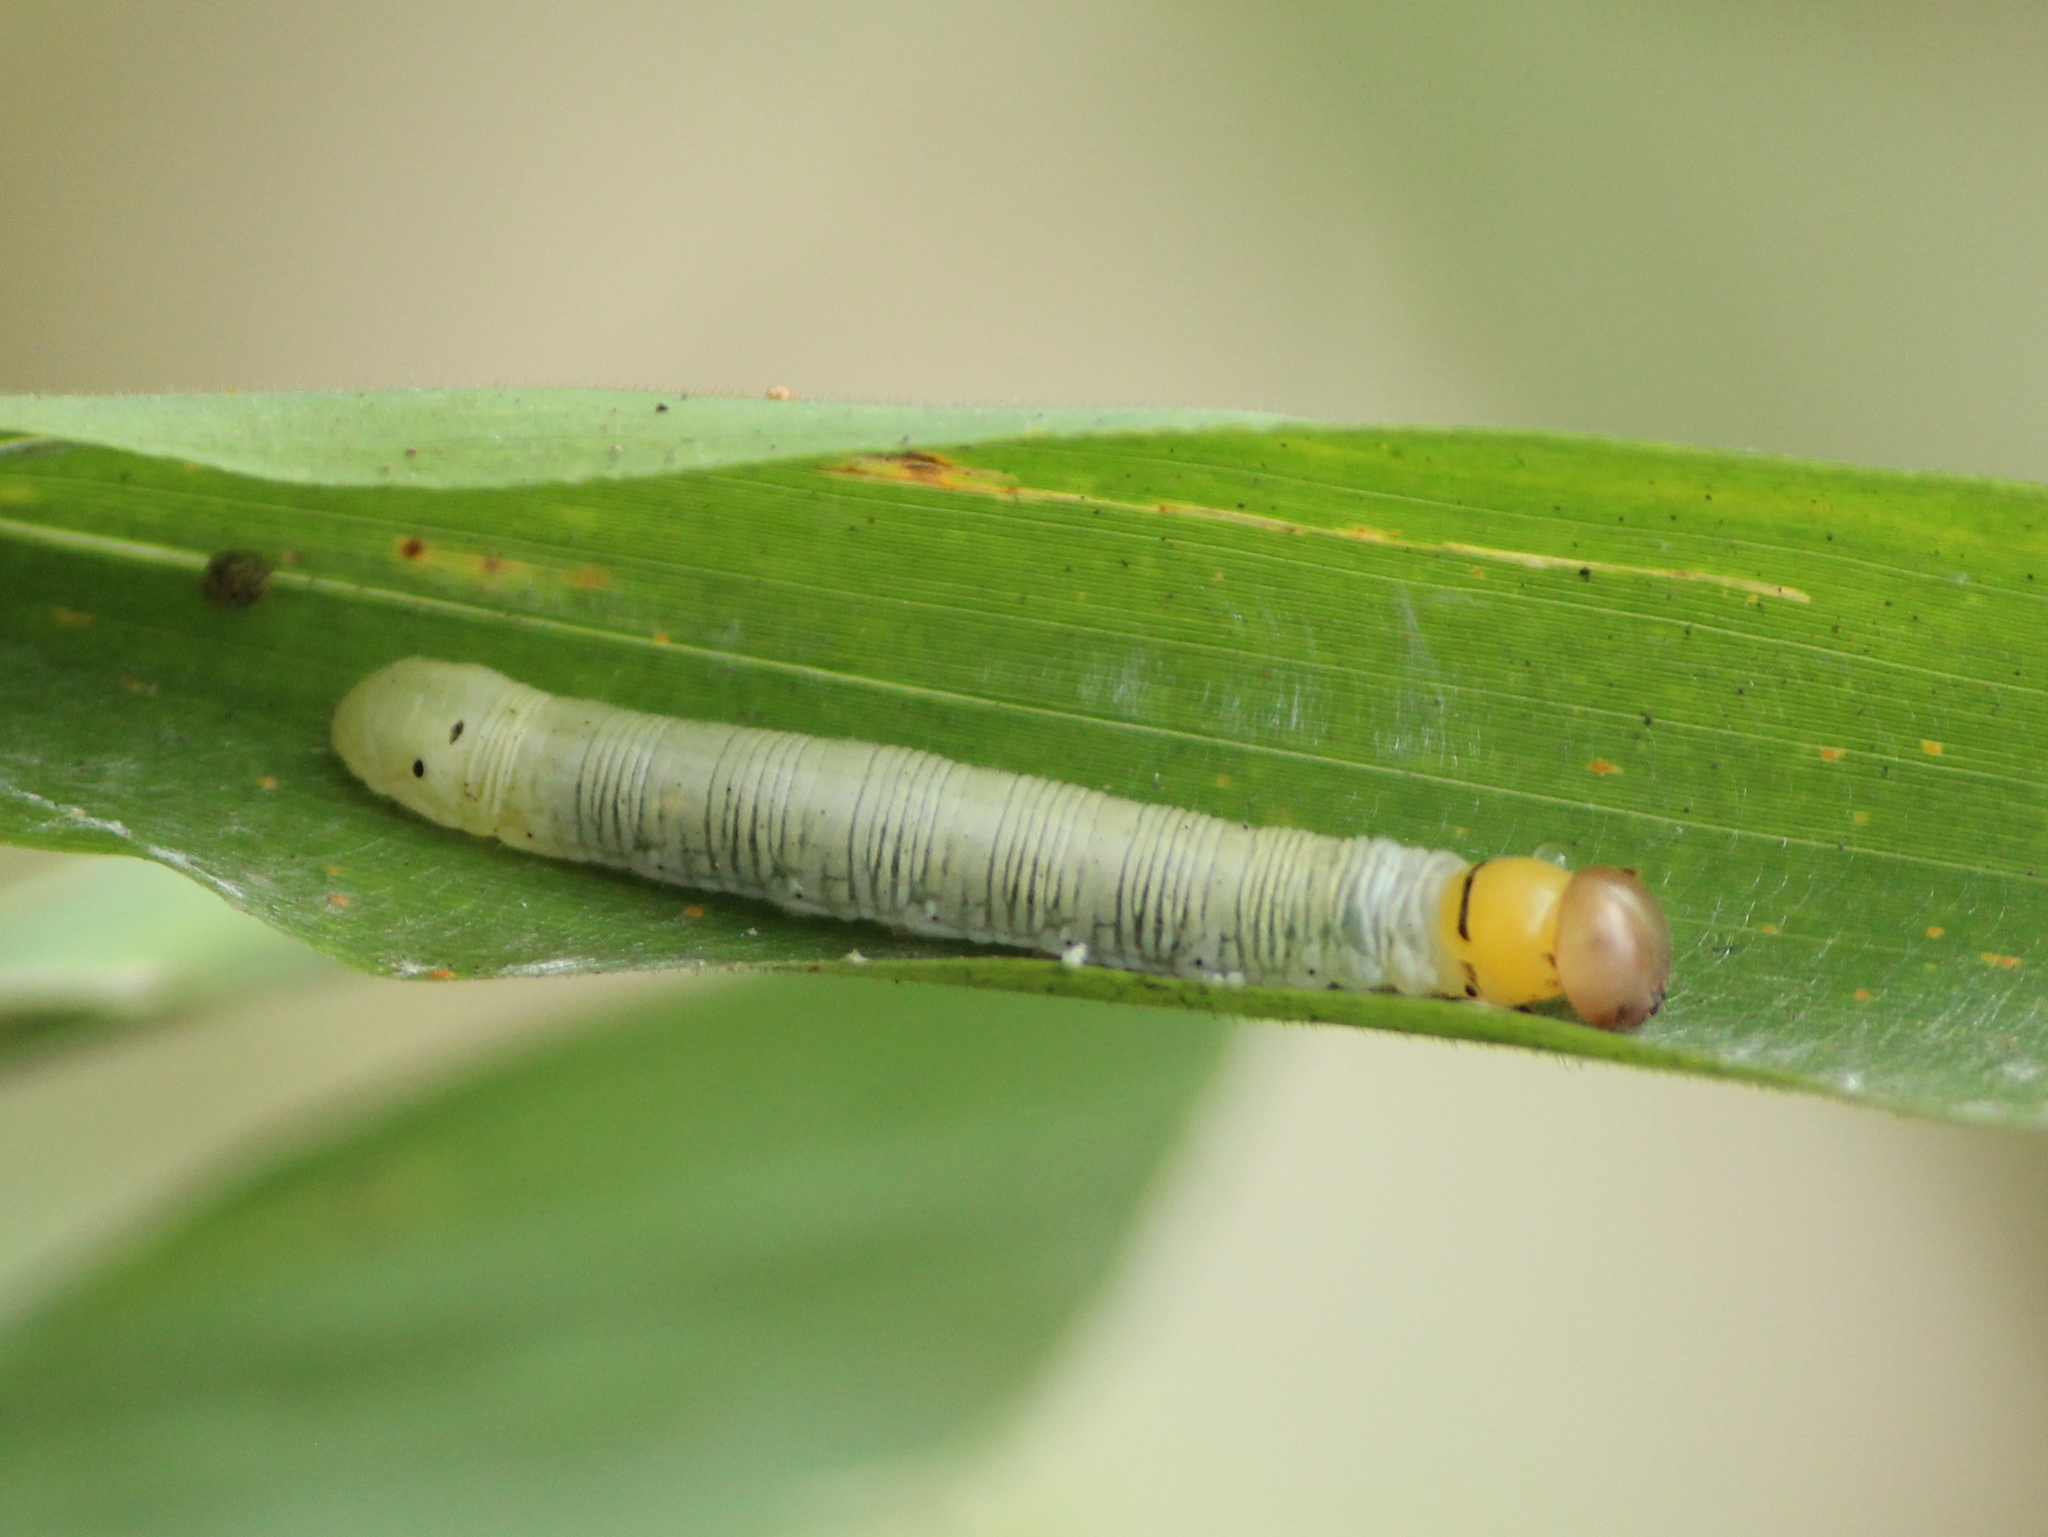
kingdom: Animalia
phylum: Arthropoda
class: Insecta
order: Lepidoptera
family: Hesperiidae
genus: Matapa
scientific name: Matapa aria
